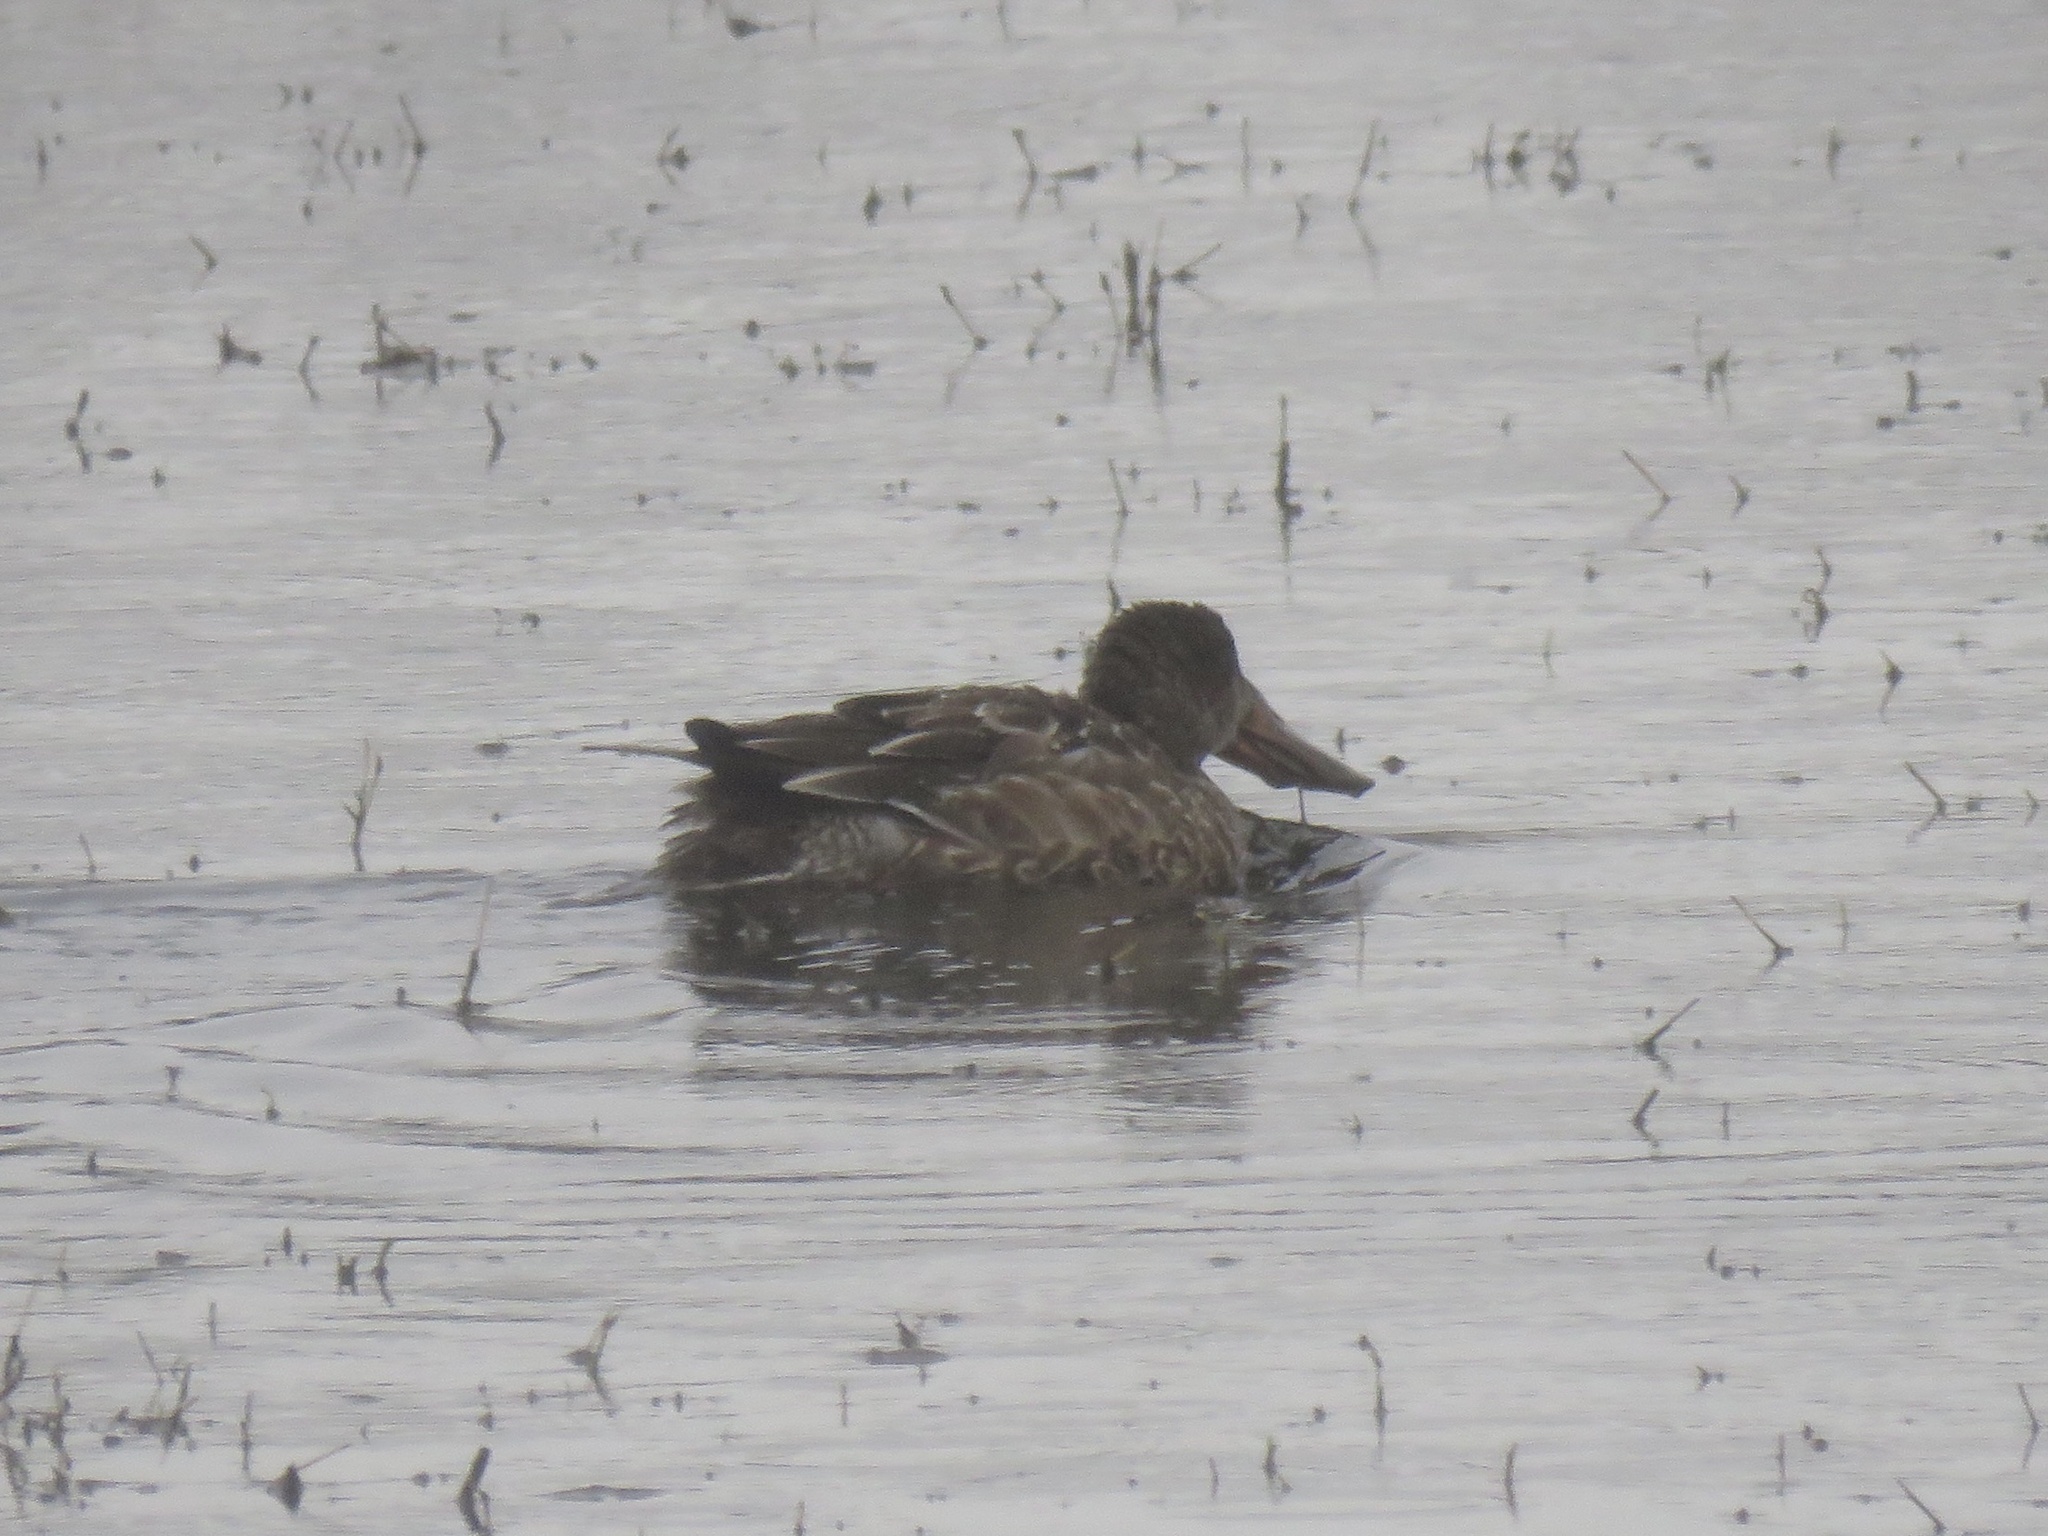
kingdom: Animalia
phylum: Chordata
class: Aves
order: Anseriformes
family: Anatidae
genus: Spatula
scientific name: Spatula clypeata
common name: Northern shoveler
